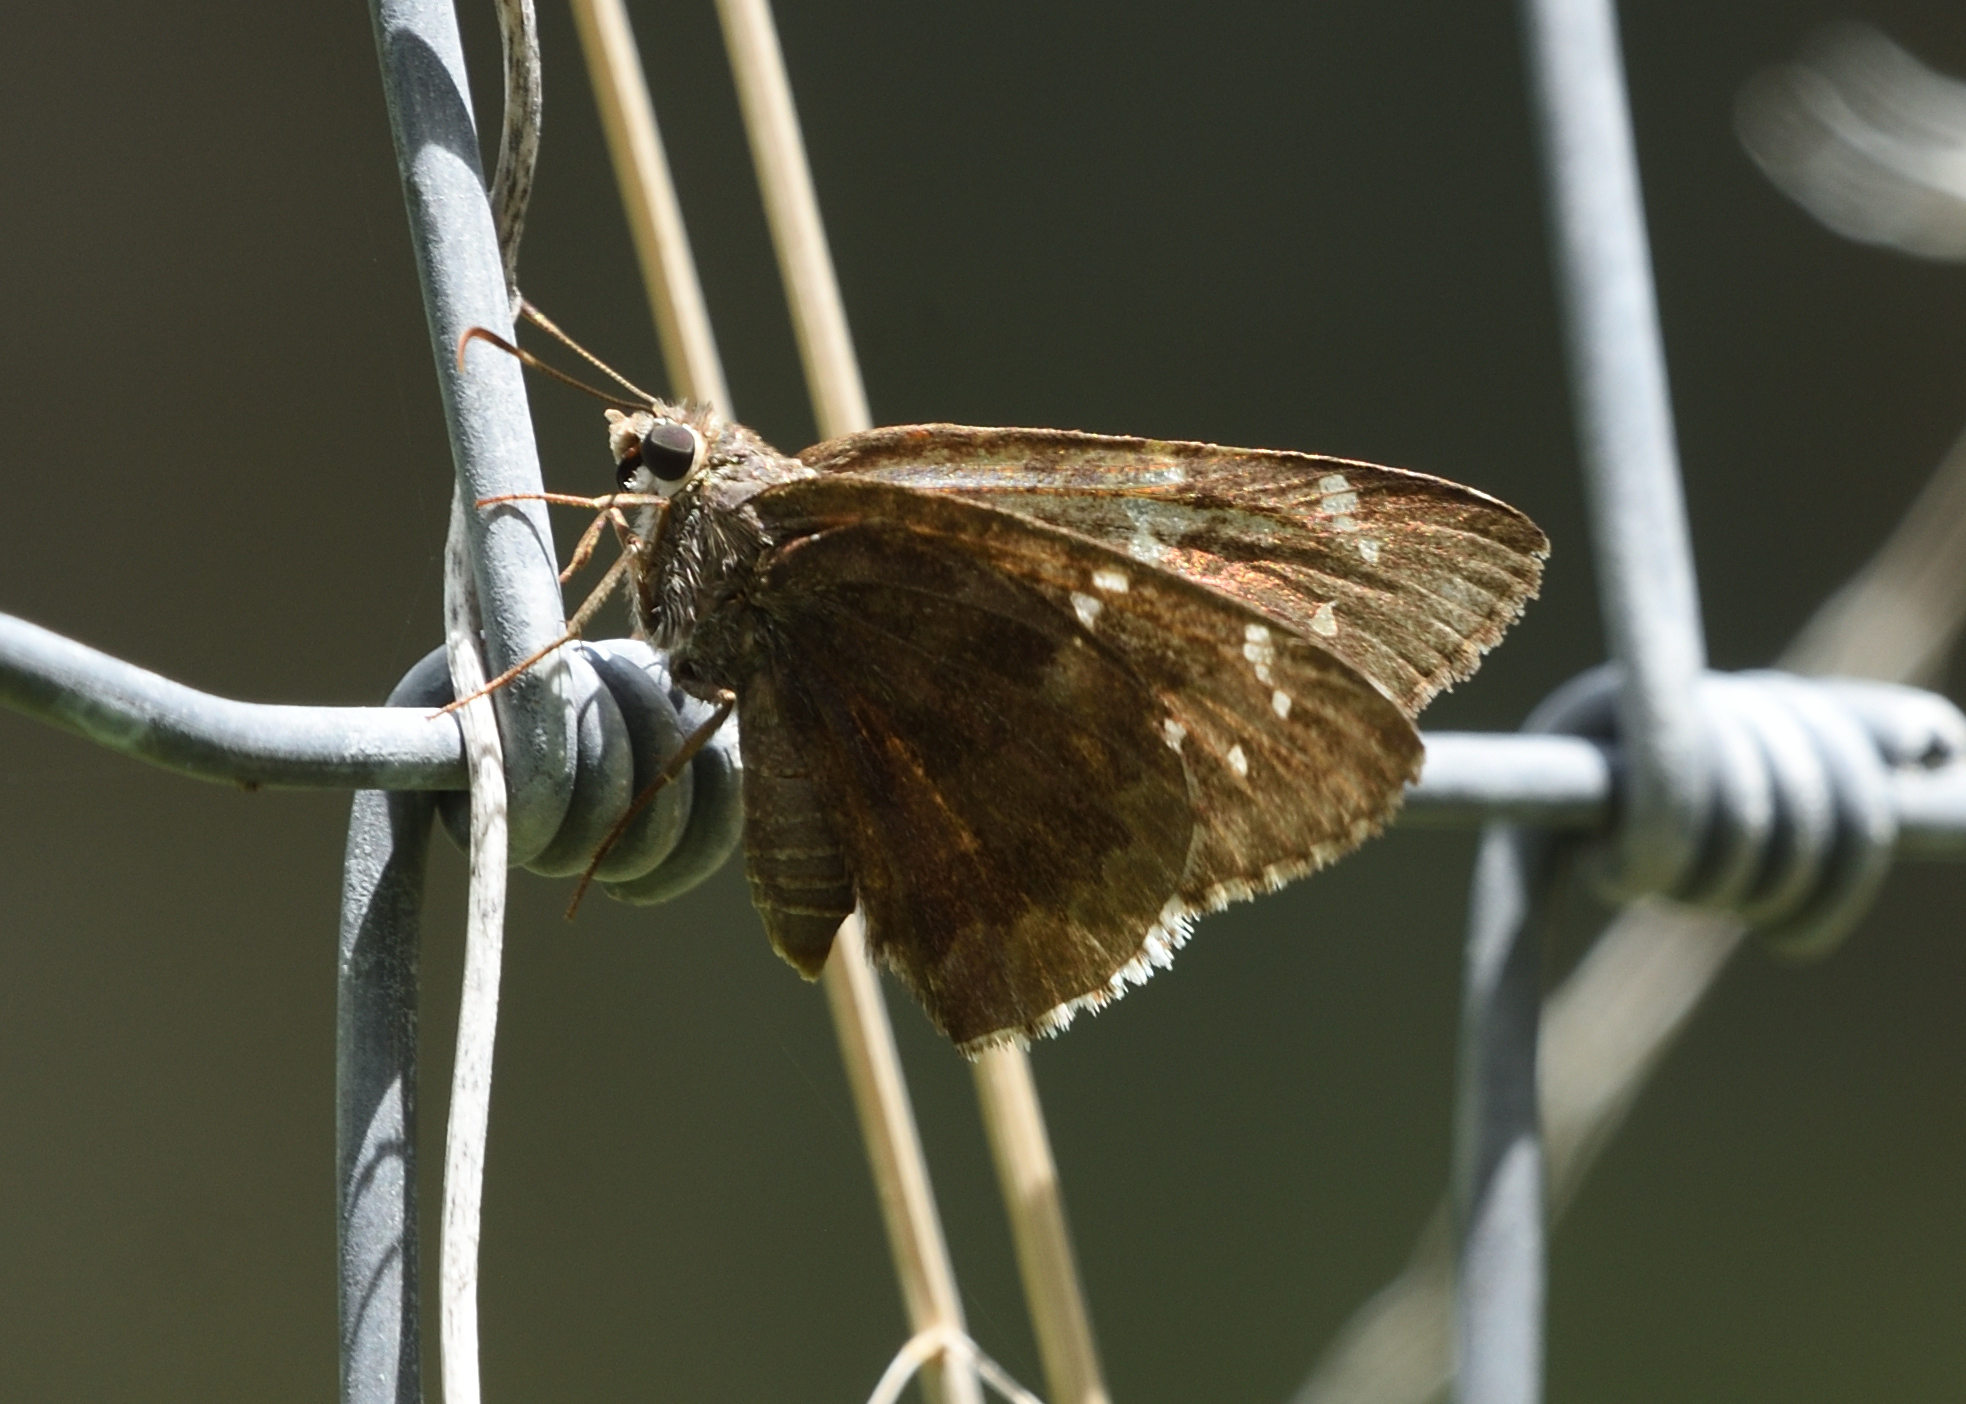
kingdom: Animalia
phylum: Arthropoda
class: Insecta
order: Lepidoptera
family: Hesperiidae
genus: Cogia
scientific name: Cogia hippalus
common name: Acacia skipper
